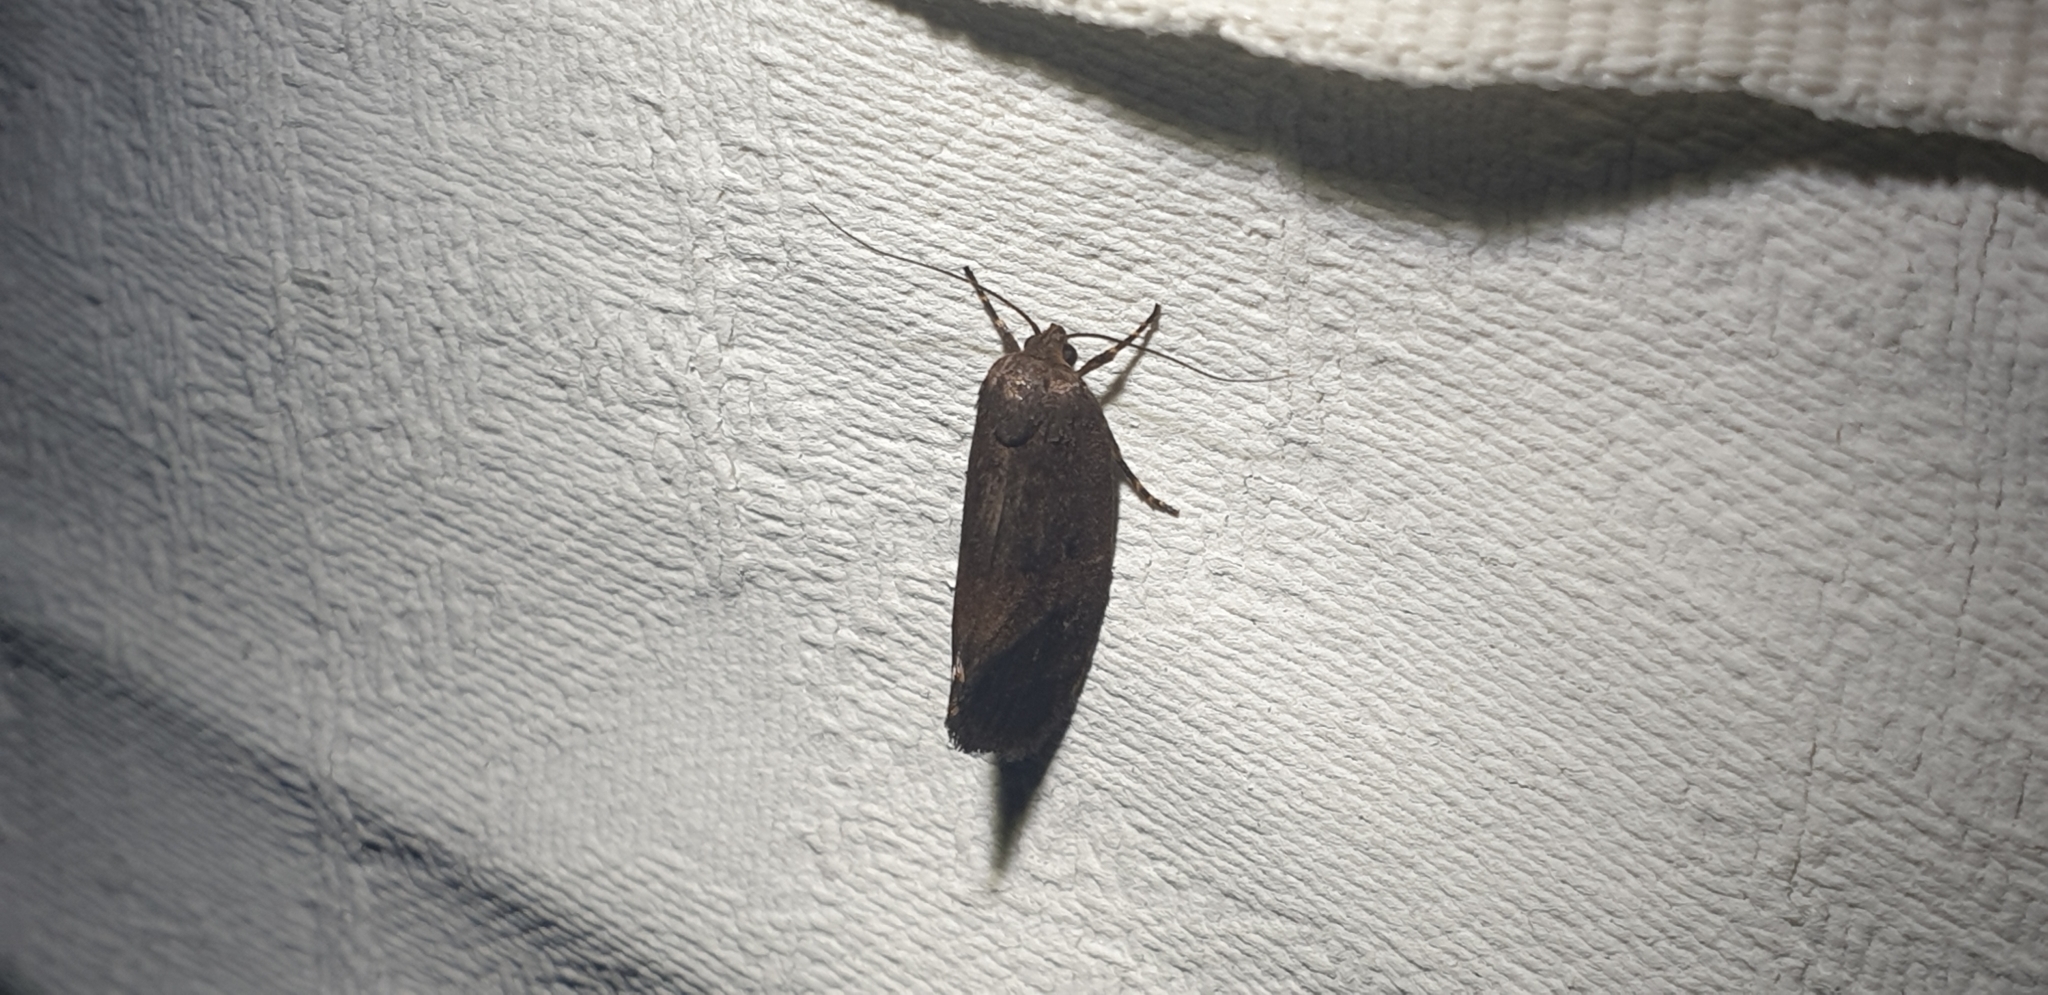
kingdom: Animalia
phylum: Arthropoda
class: Insecta
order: Lepidoptera
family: Oecophoridae
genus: Pycnocera
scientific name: Pycnocera hypoxantha
